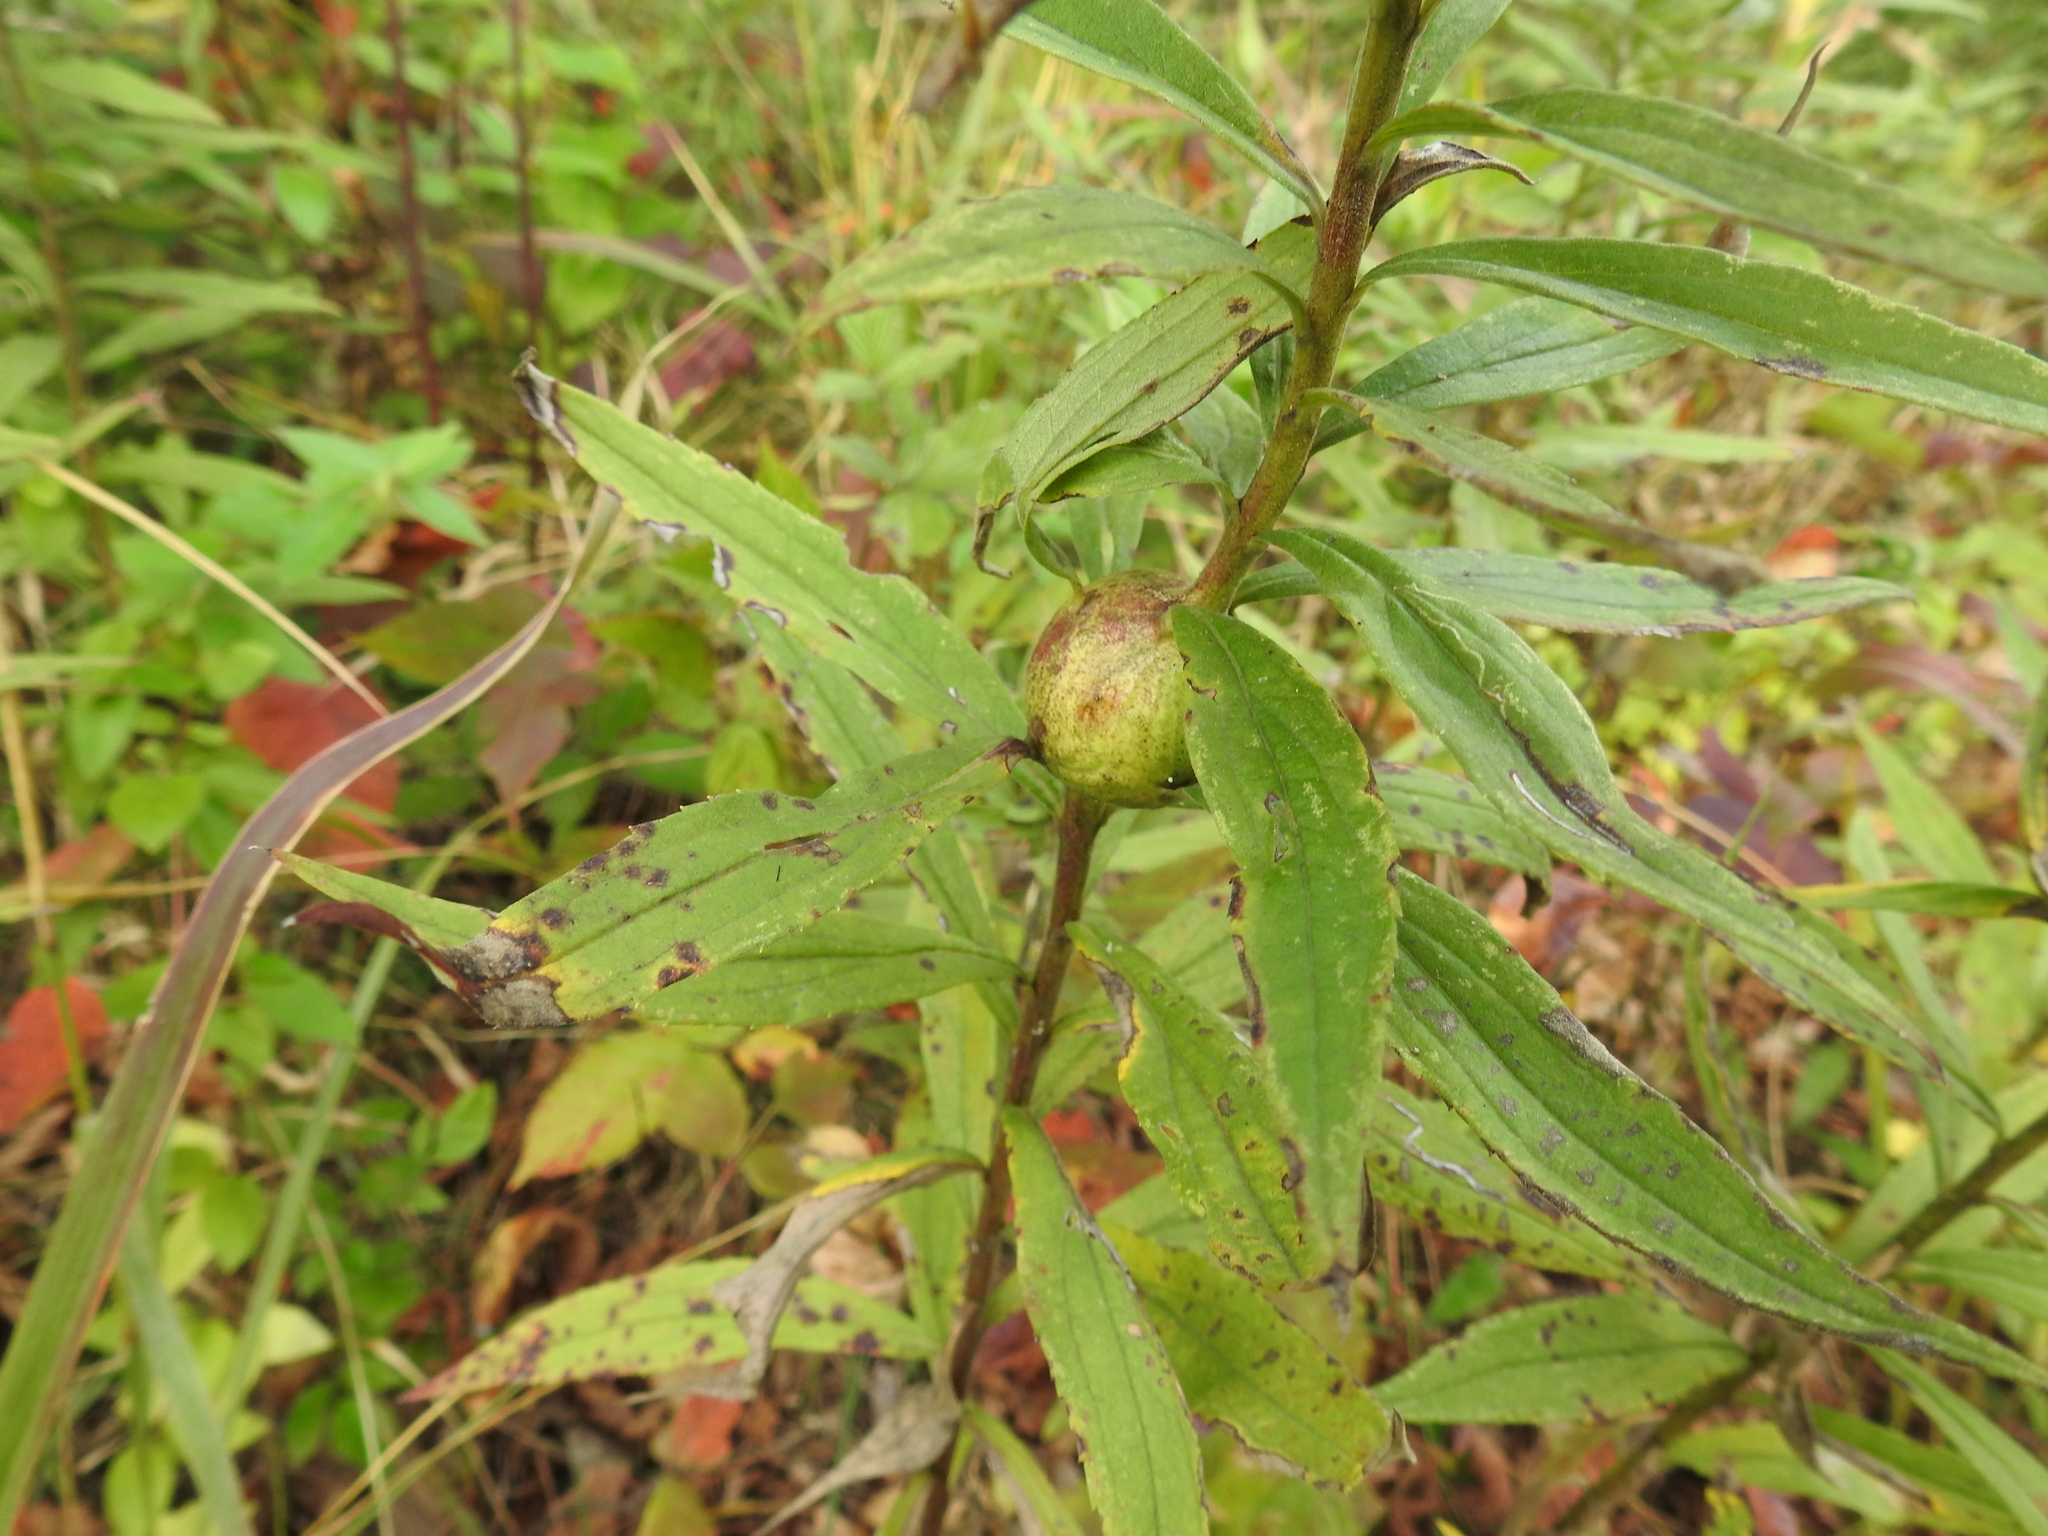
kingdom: Animalia
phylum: Arthropoda
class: Insecta
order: Diptera
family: Tephritidae
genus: Eurosta
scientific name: Eurosta solidaginis
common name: Goldenrod gall fly
